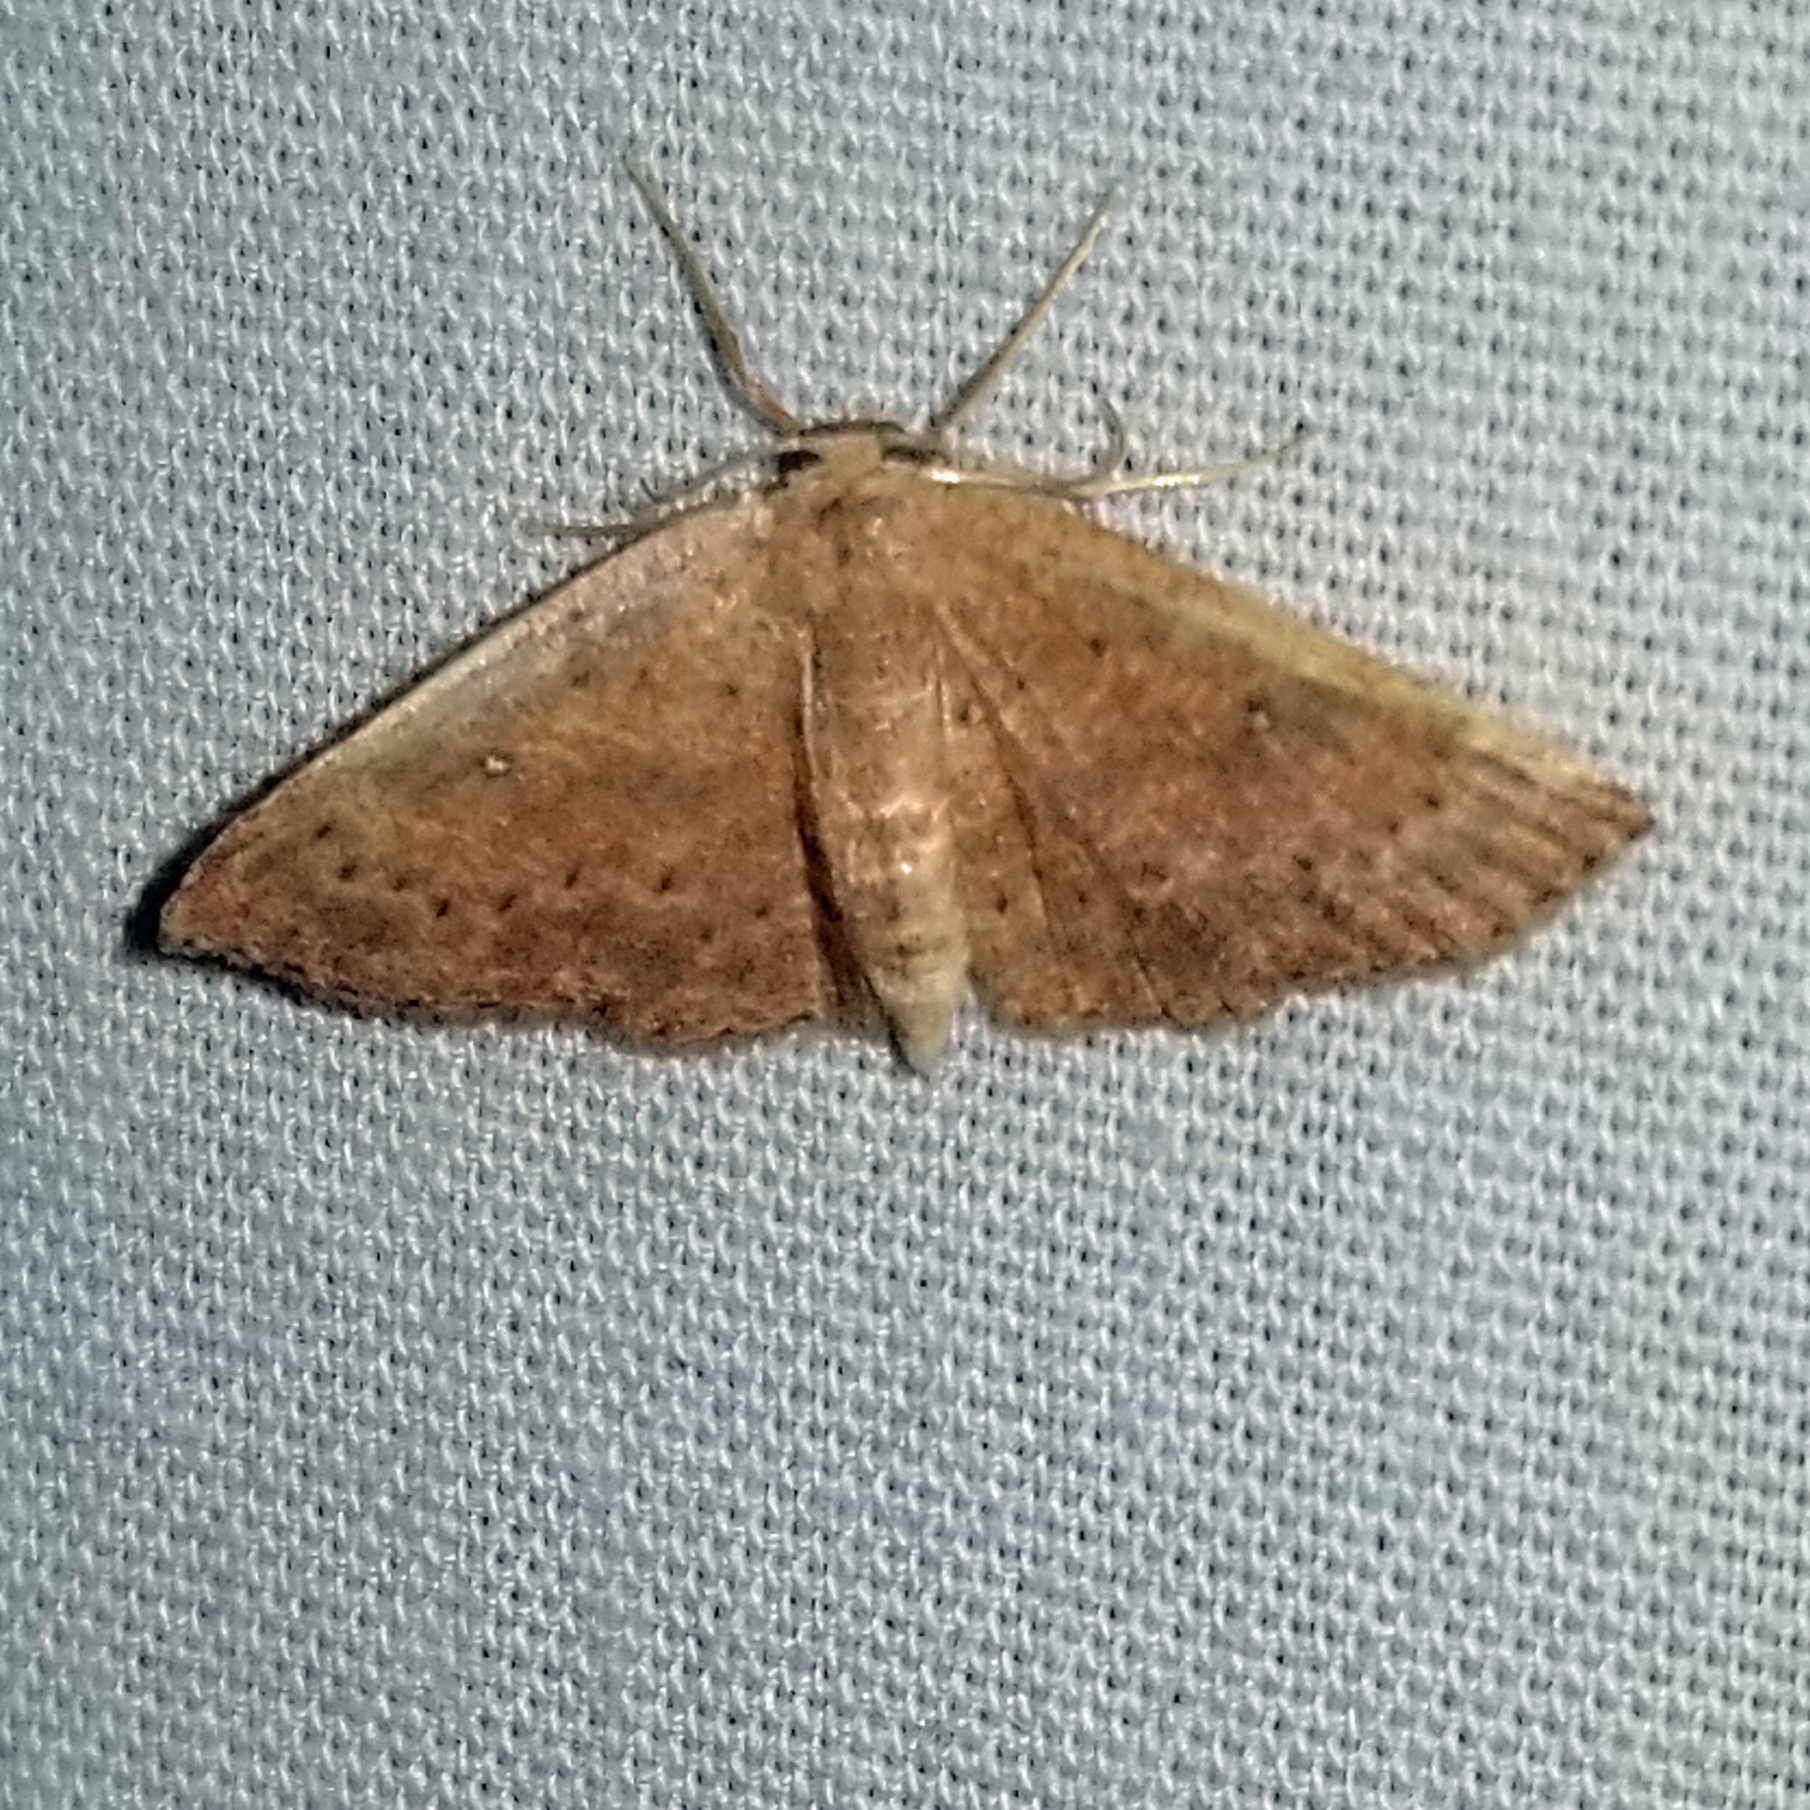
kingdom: Animalia
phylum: Arthropoda
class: Insecta
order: Lepidoptera
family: Geometridae
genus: Cyclophora
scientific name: Cyclophora packardi
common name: Packard's wave
